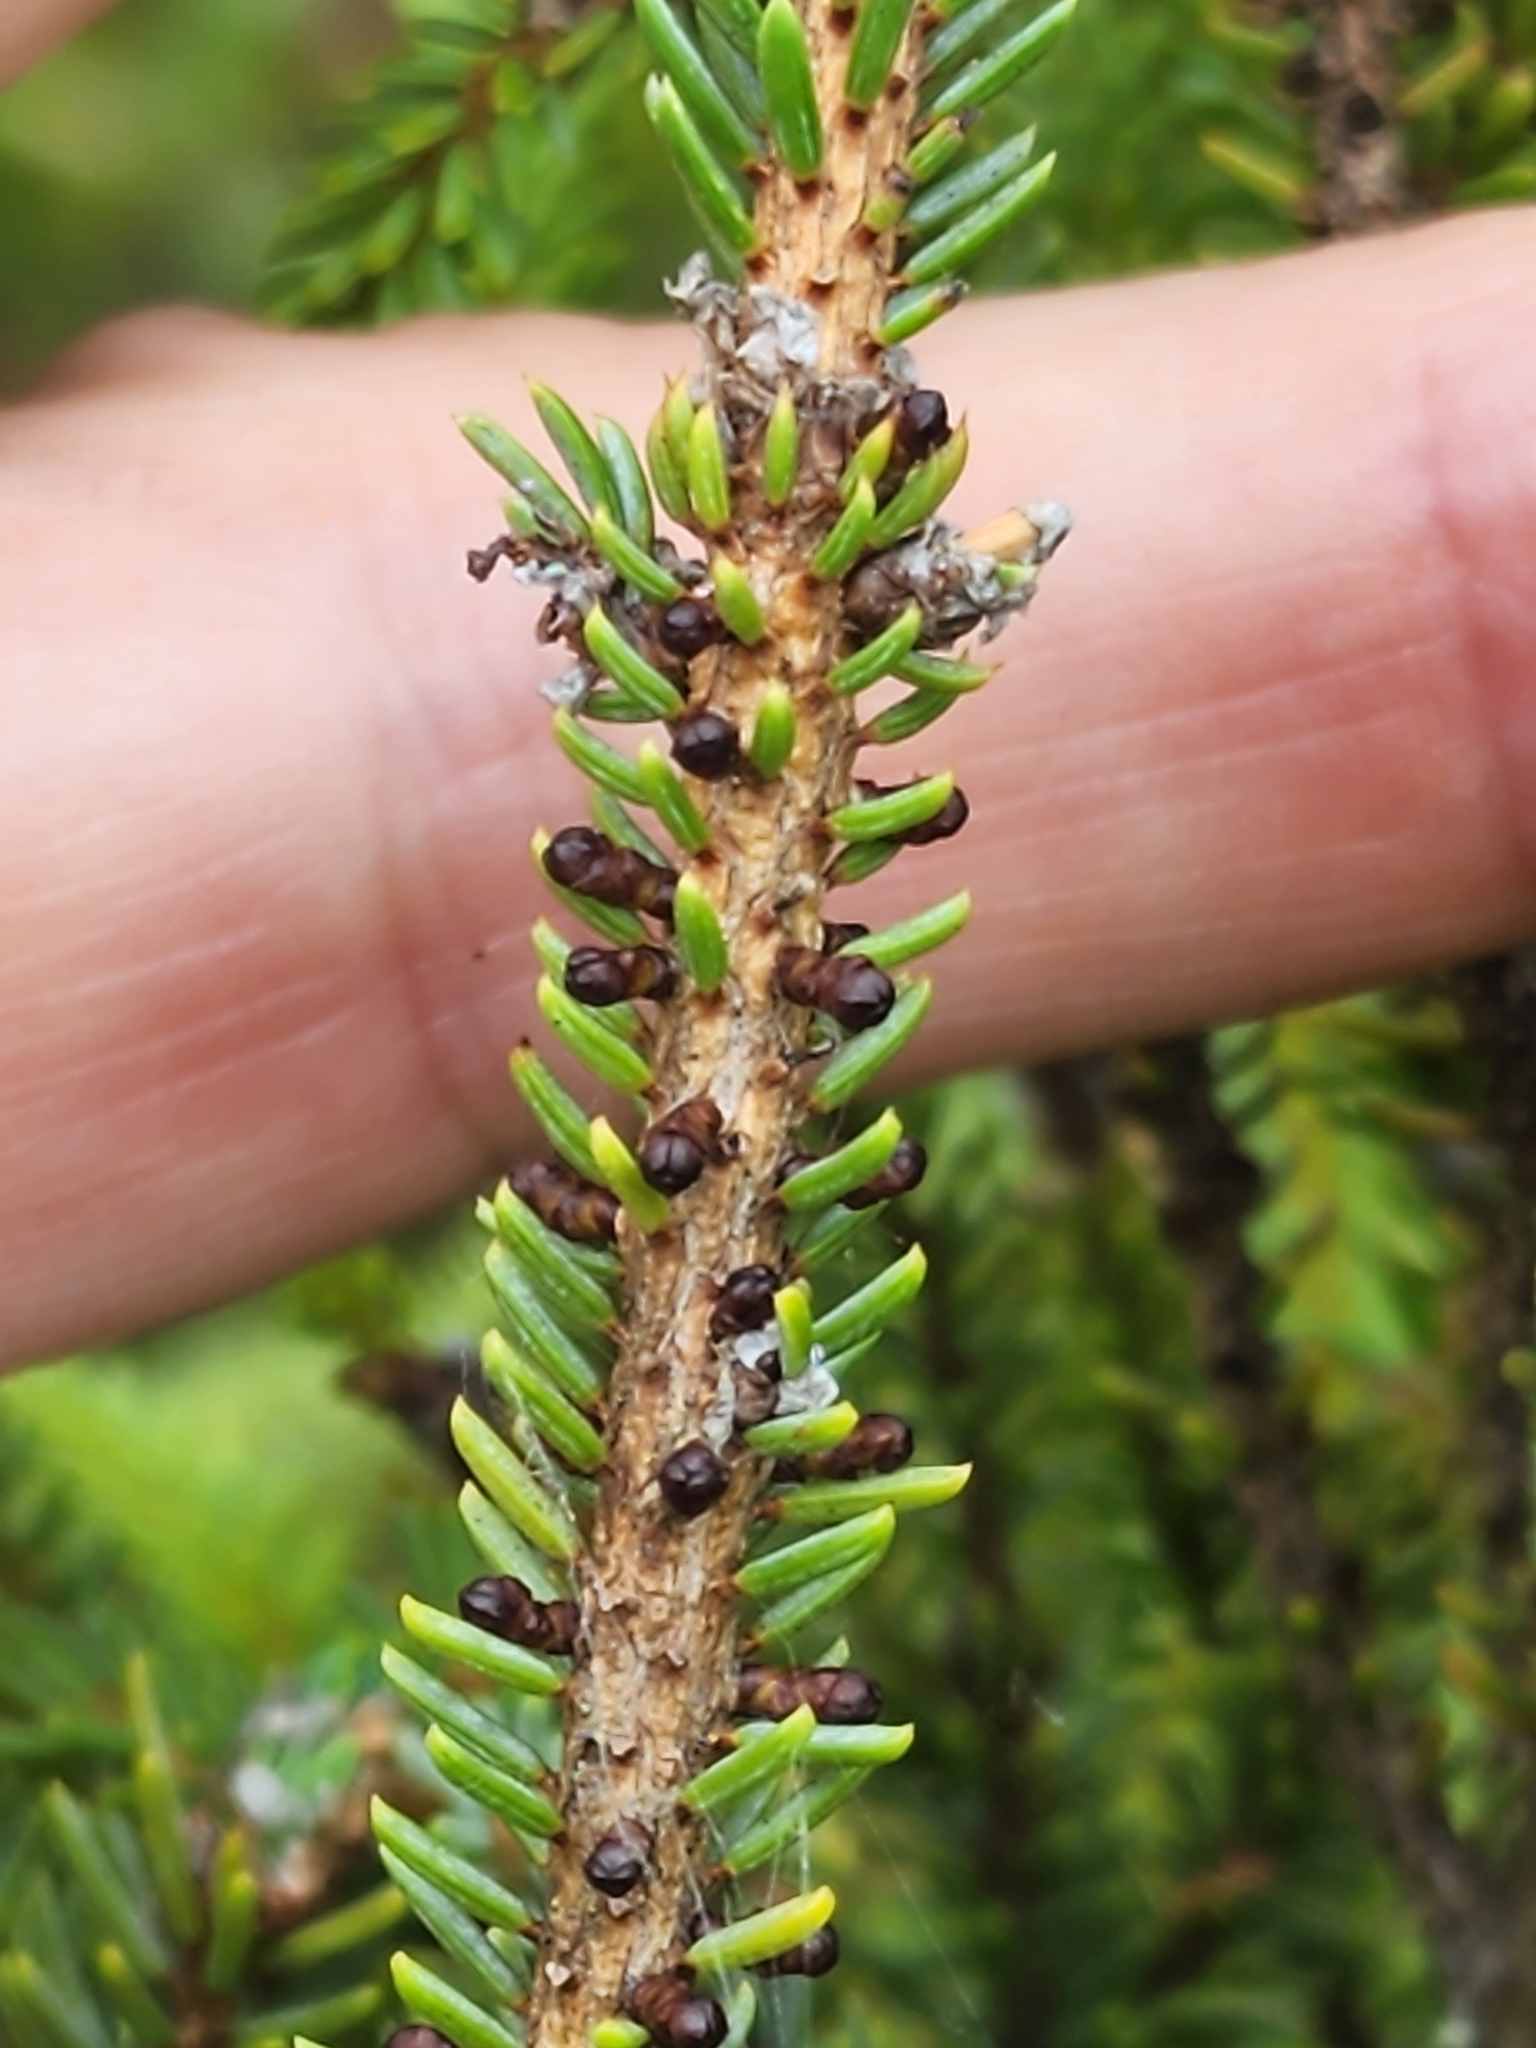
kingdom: Plantae
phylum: Tracheophyta
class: Magnoliopsida
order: Santalales
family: Viscaceae
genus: Arceuthobium
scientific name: Arceuthobium pusillum
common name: Dwarf-mistletoe
